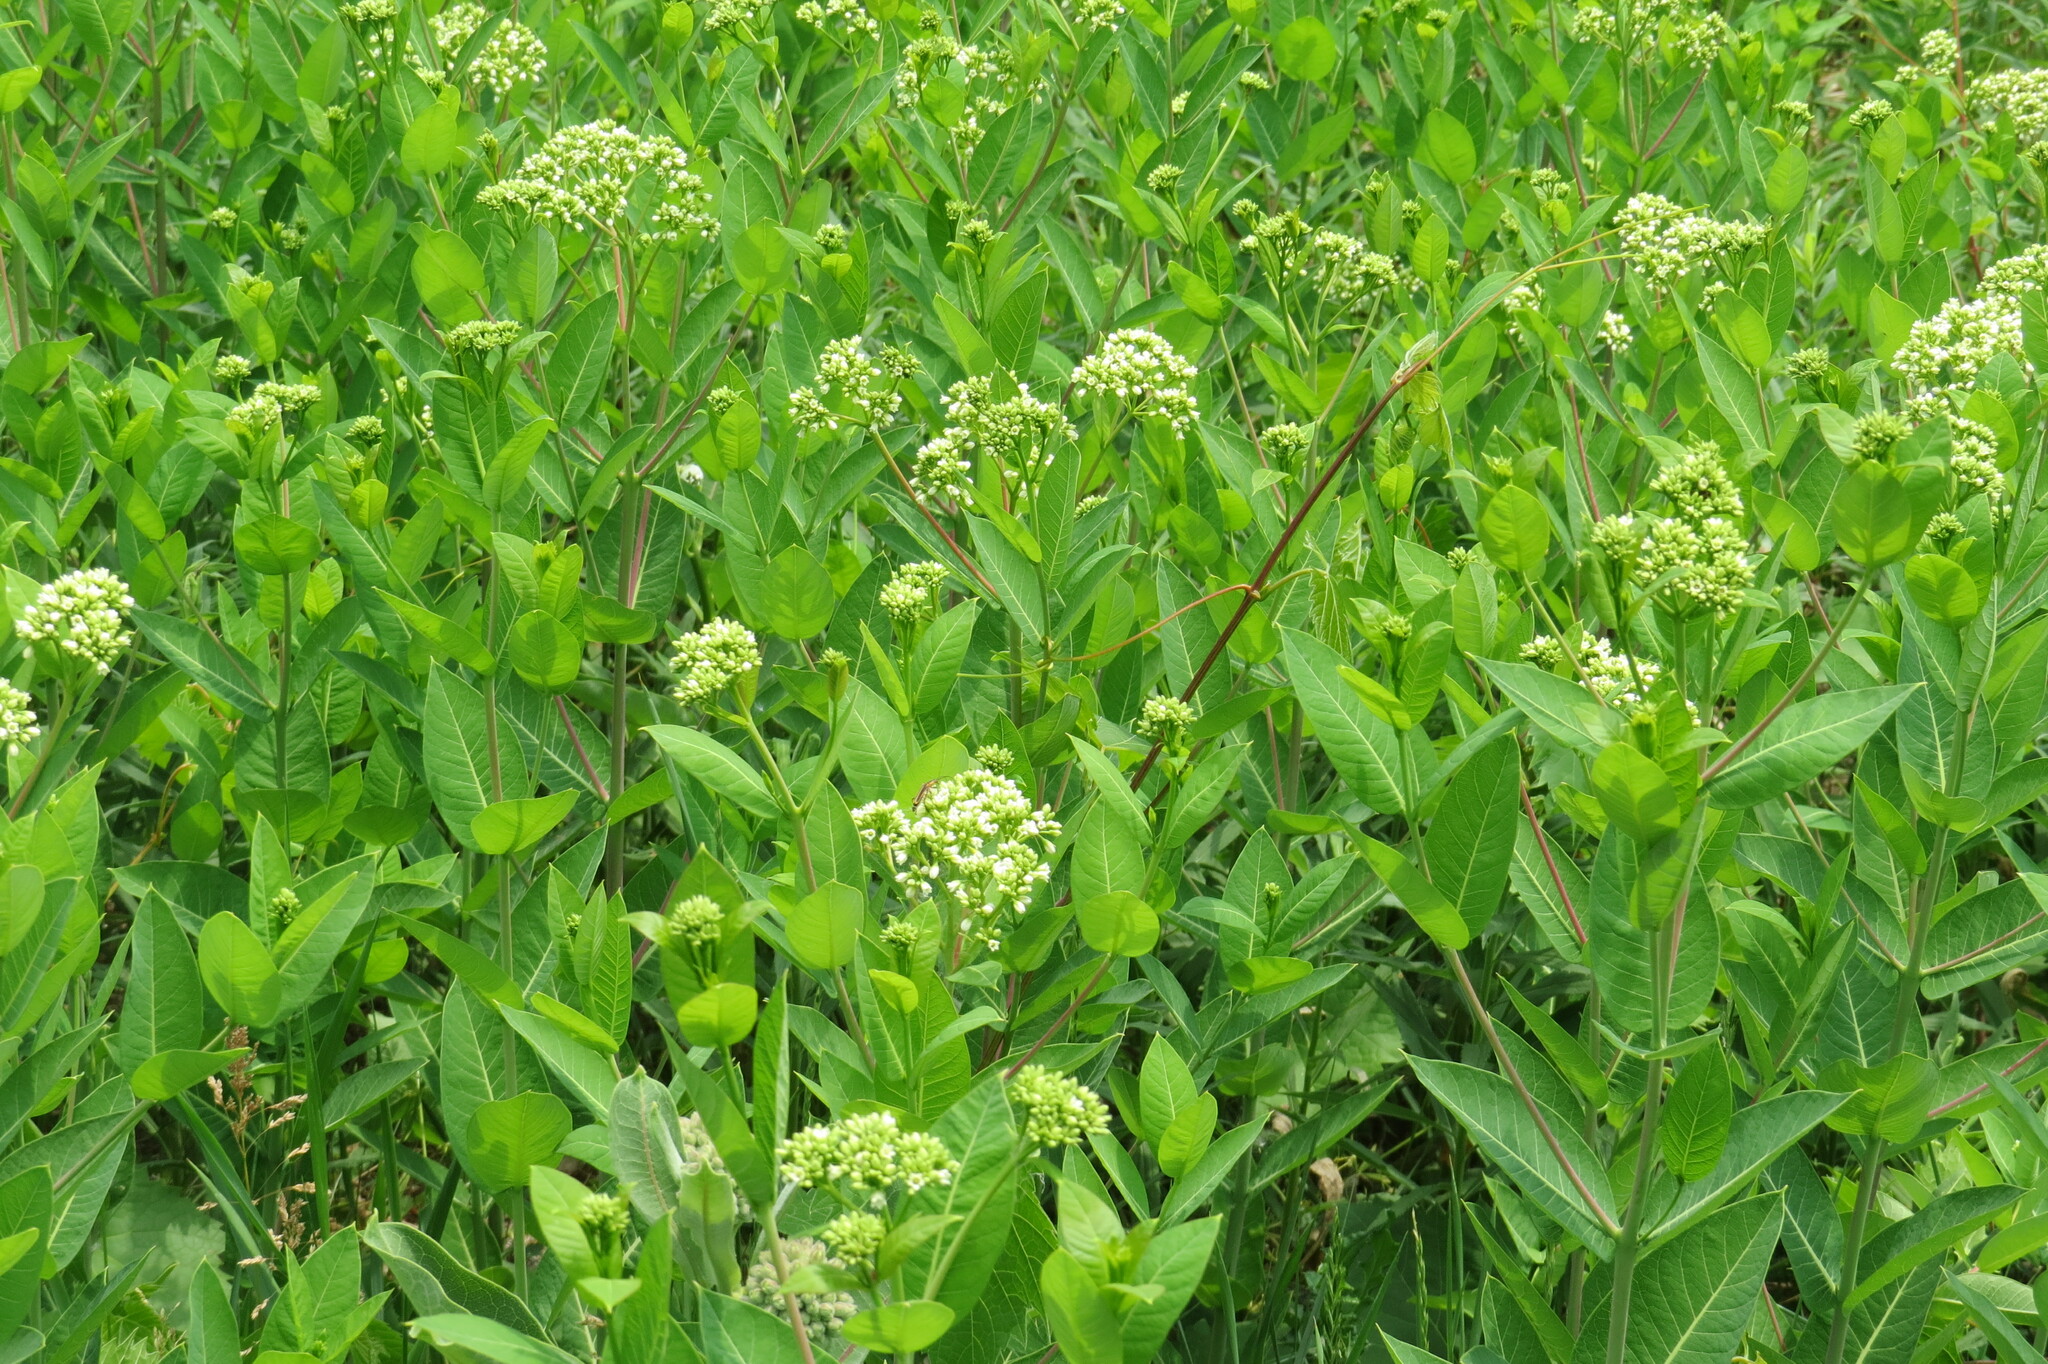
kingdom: Plantae
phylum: Tracheophyta
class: Magnoliopsida
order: Gentianales
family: Apocynaceae
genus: Apocynum
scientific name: Apocynum cannabinum
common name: Hemp dogbane
